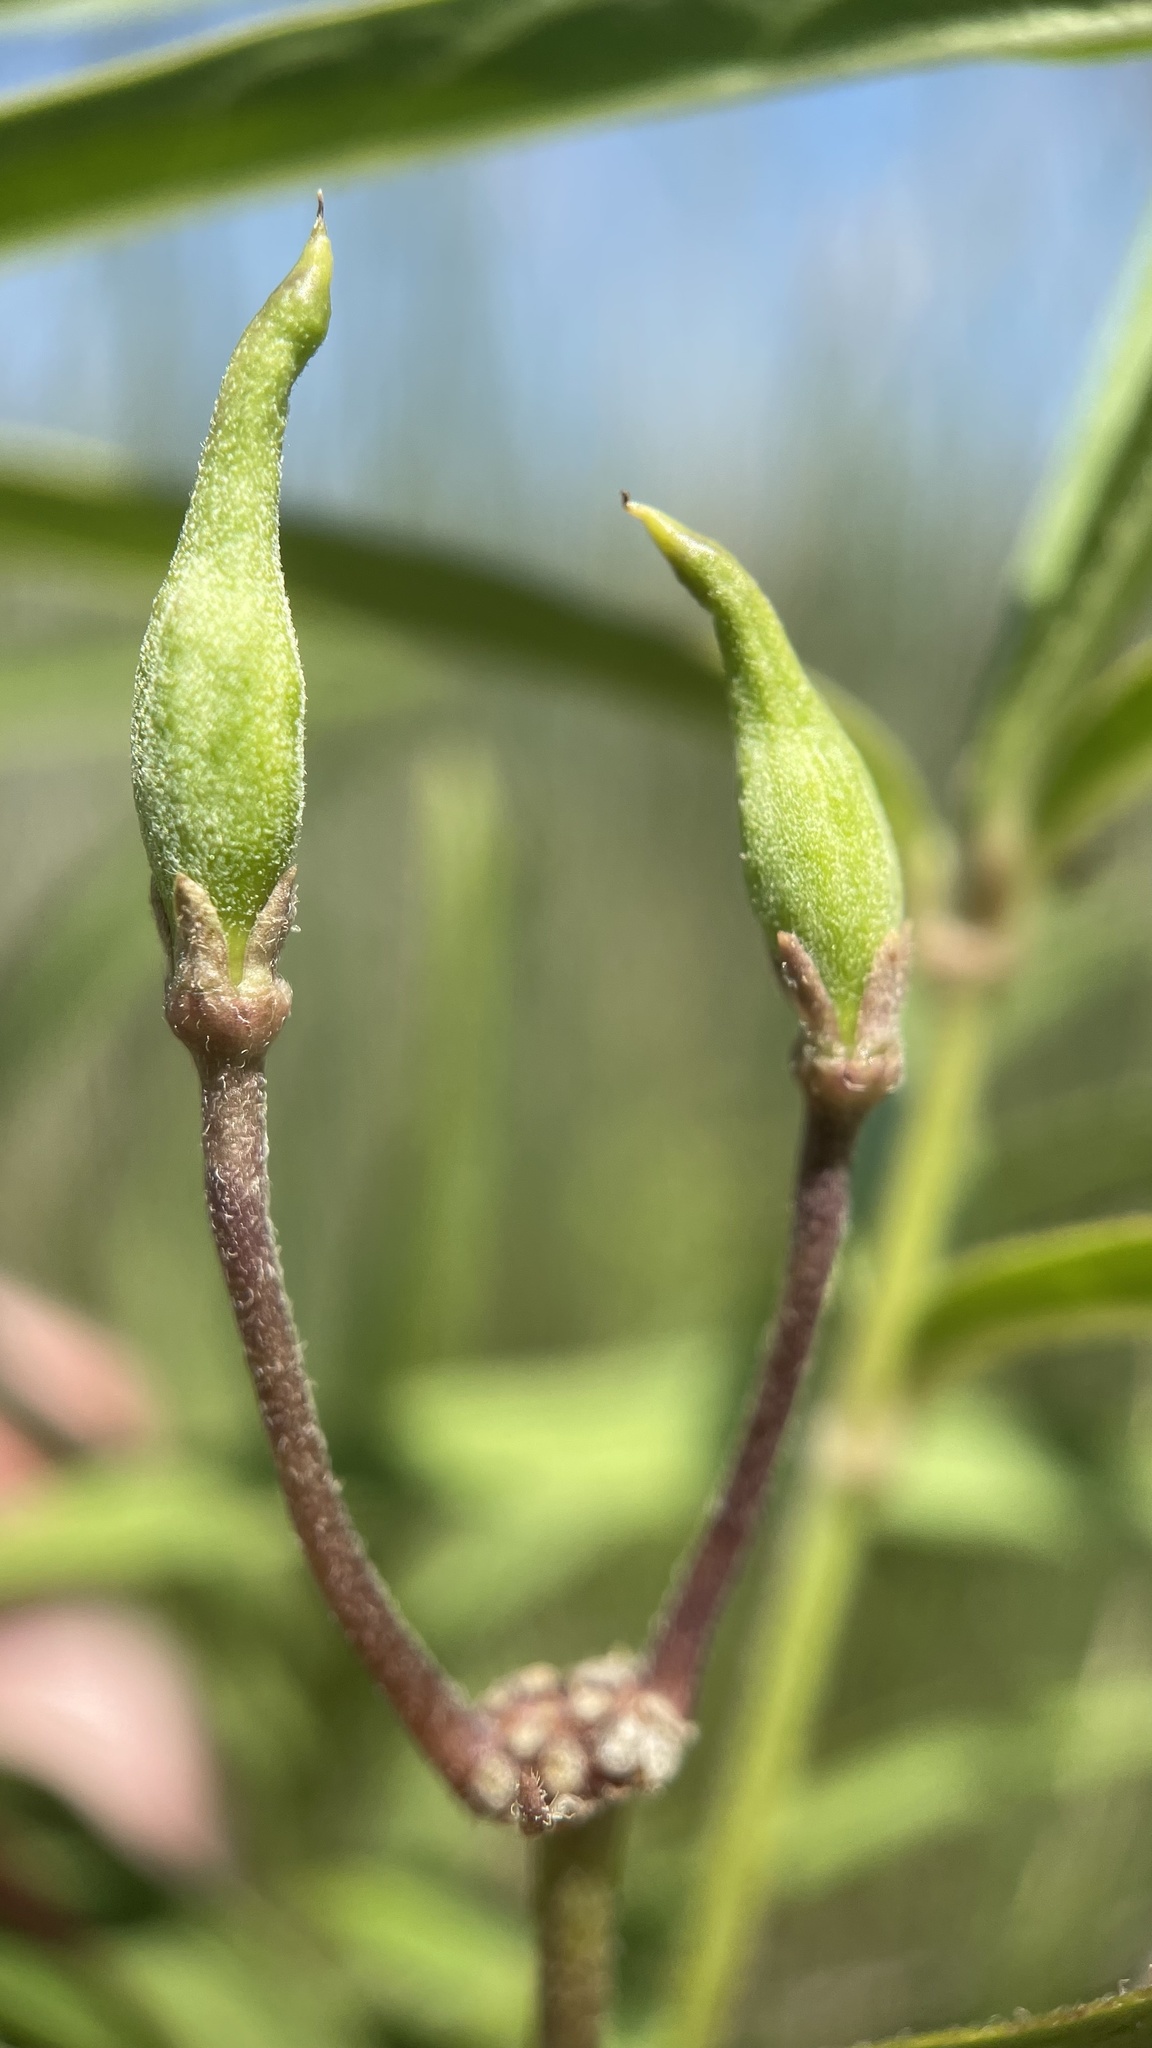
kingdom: Plantae
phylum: Tracheophyta
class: Magnoliopsida
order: Gentianales
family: Apocynaceae
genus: Asclepias
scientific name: Asclepias incarnata
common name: Swamp milkweed
